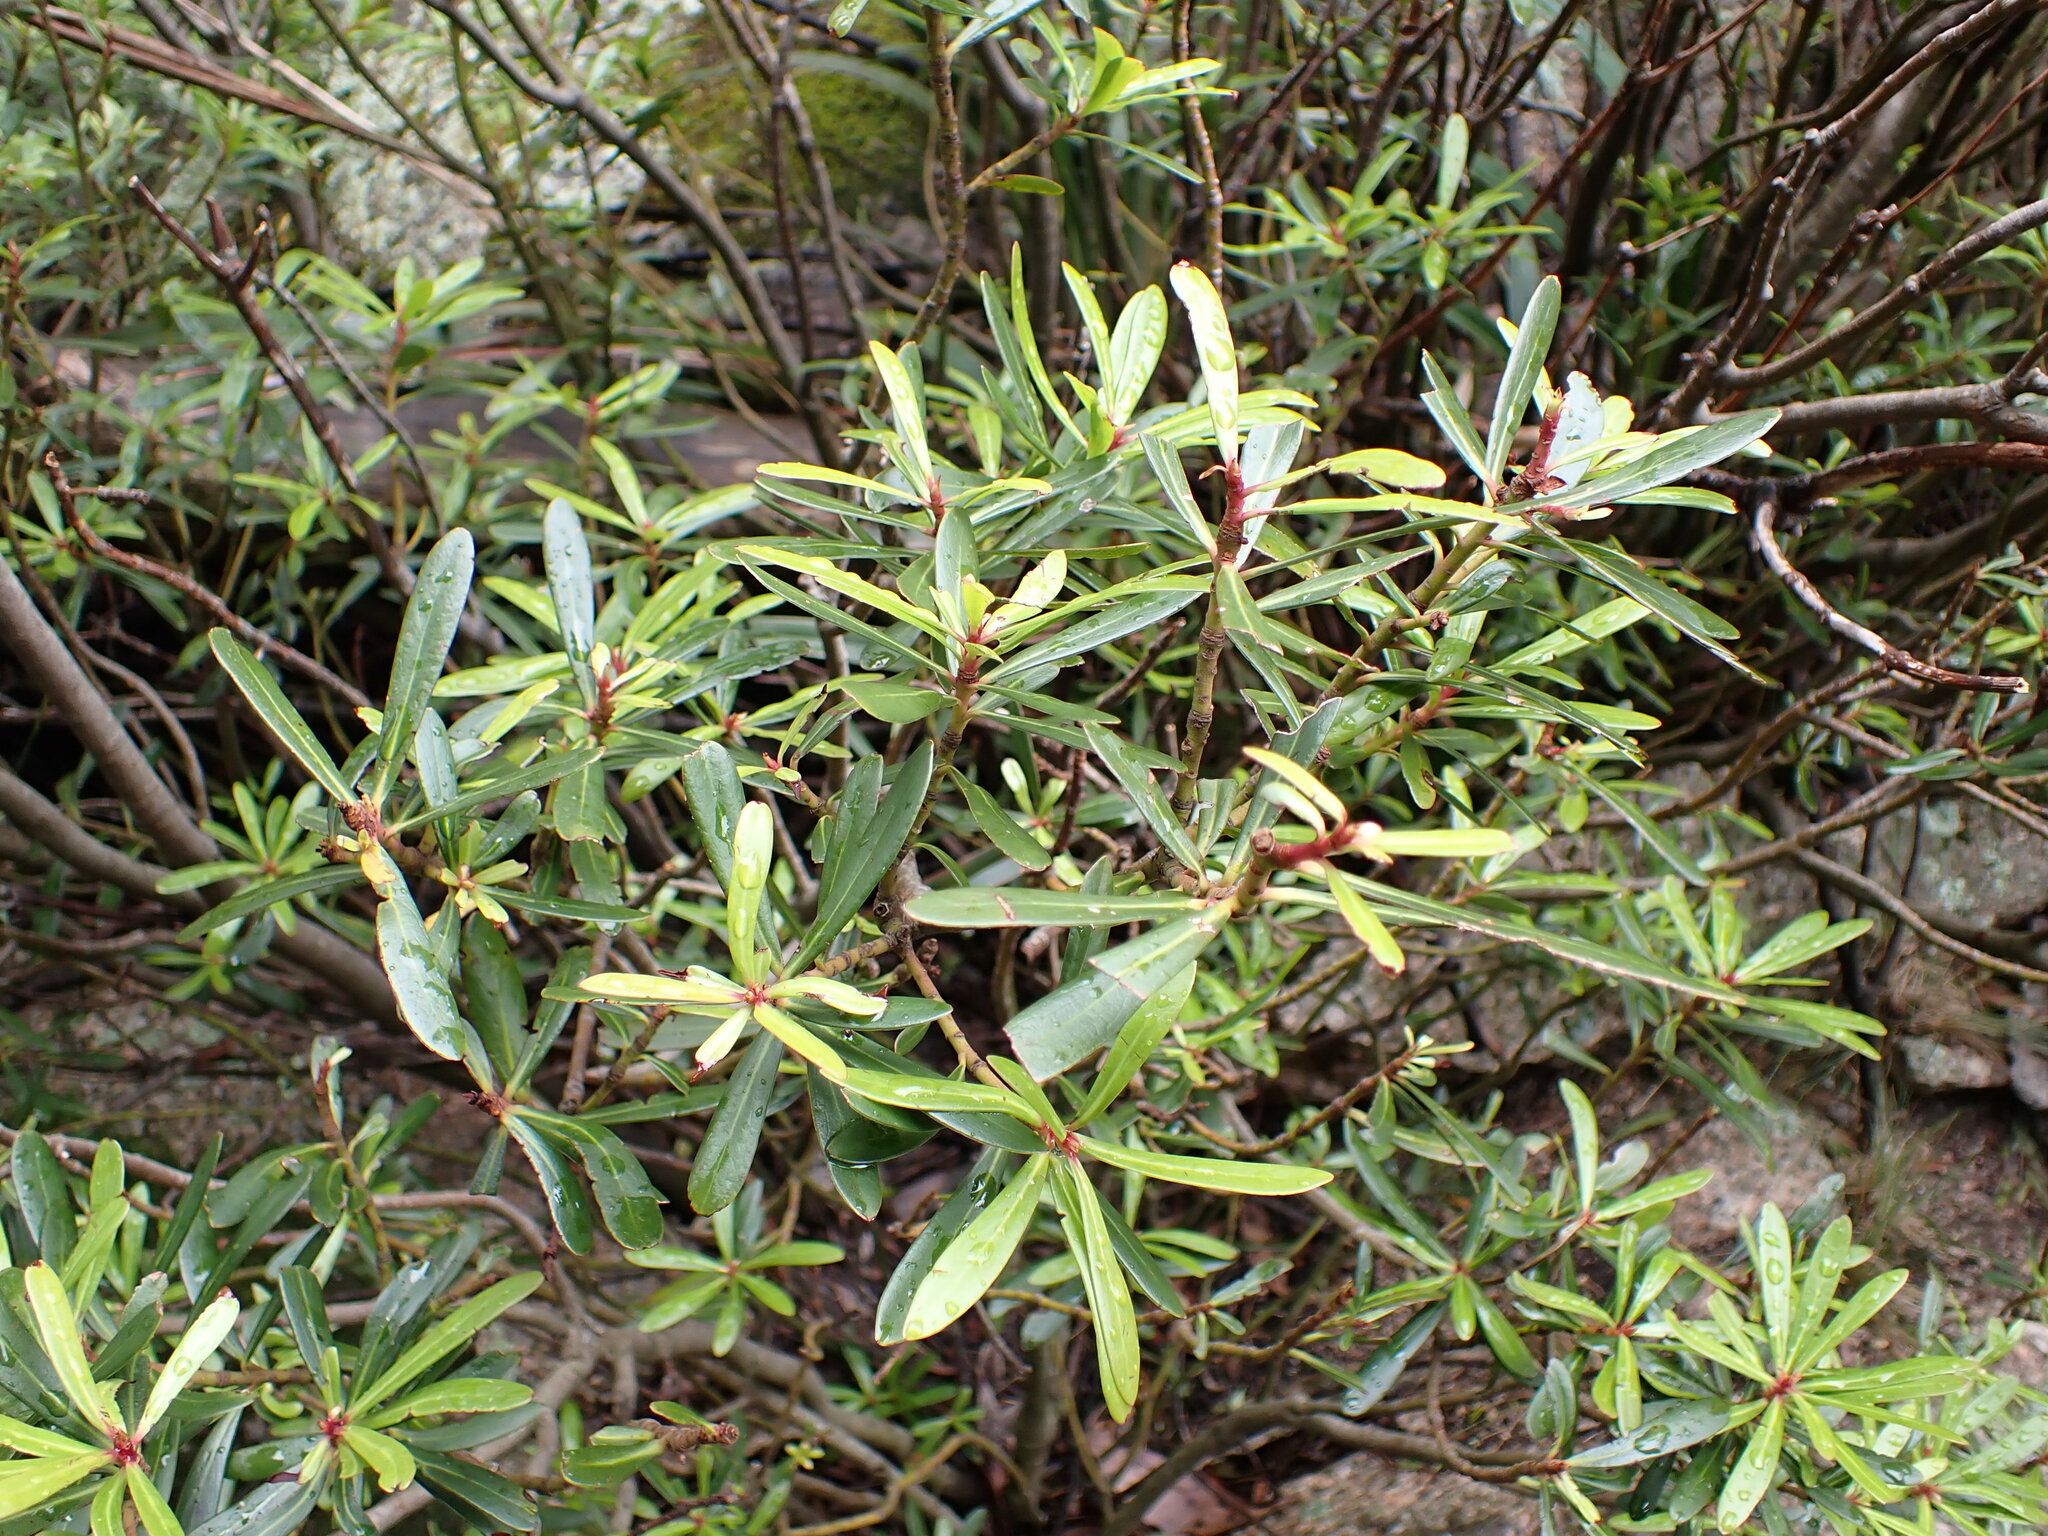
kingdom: Plantae
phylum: Tracheophyta
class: Magnoliopsida
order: Canellales
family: Winteraceae
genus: Drimys
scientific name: Drimys xerophila
